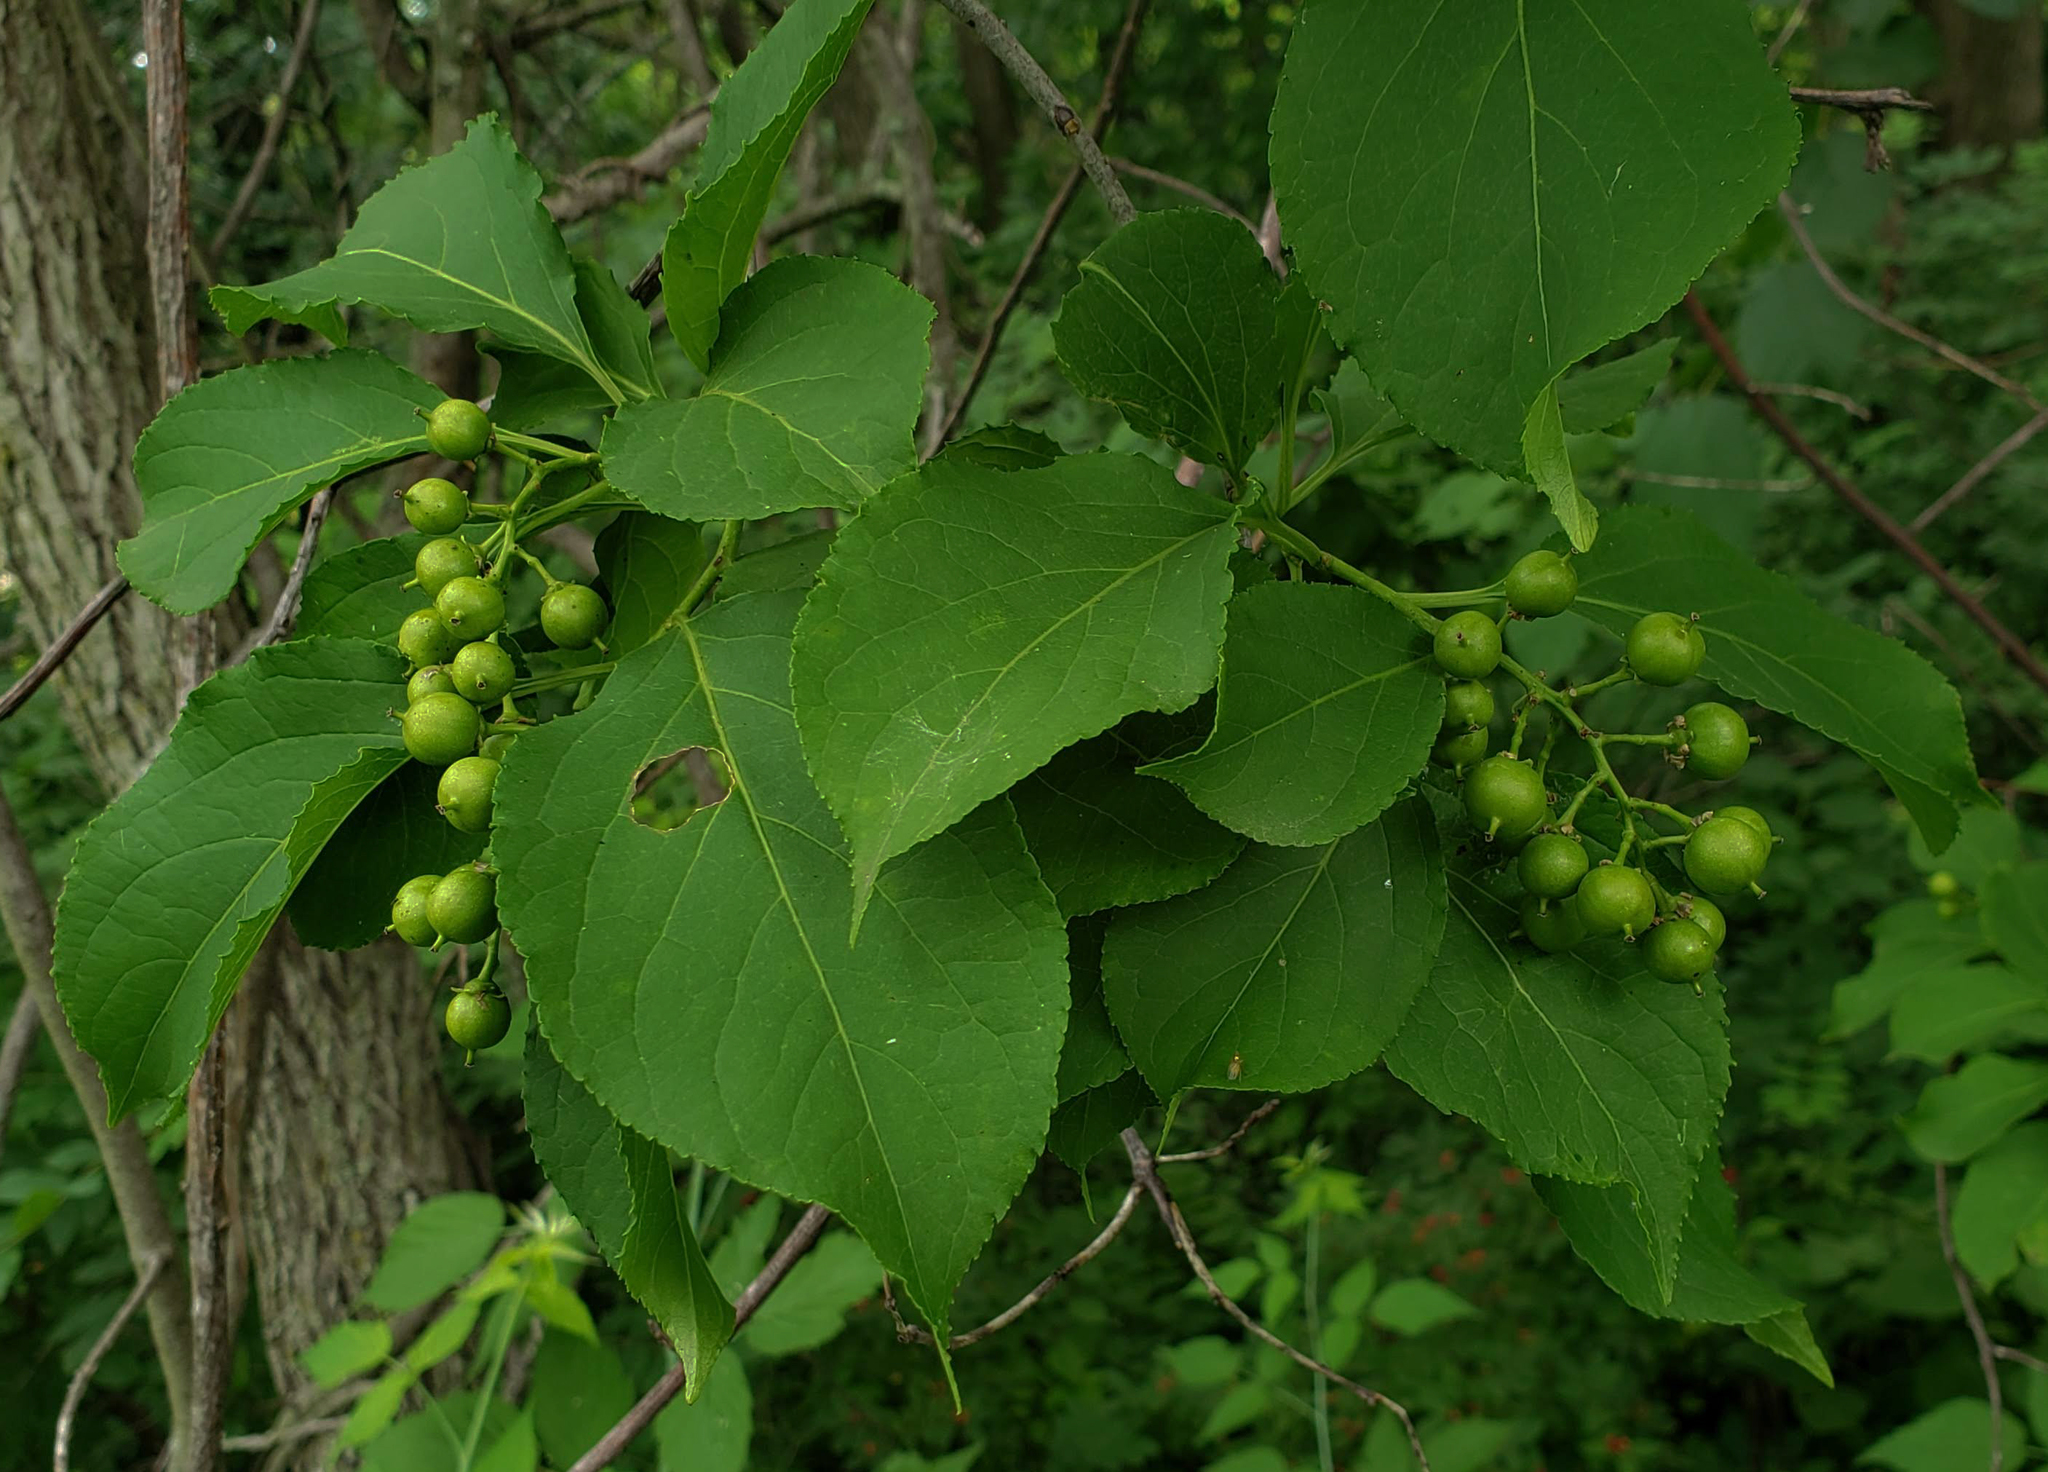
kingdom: Plantae
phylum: Tracheophyta
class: Magnoliopsida
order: Celastrales
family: Celastraceae
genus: Celastrus
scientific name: Celastrus scandens
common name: American bittersweet
